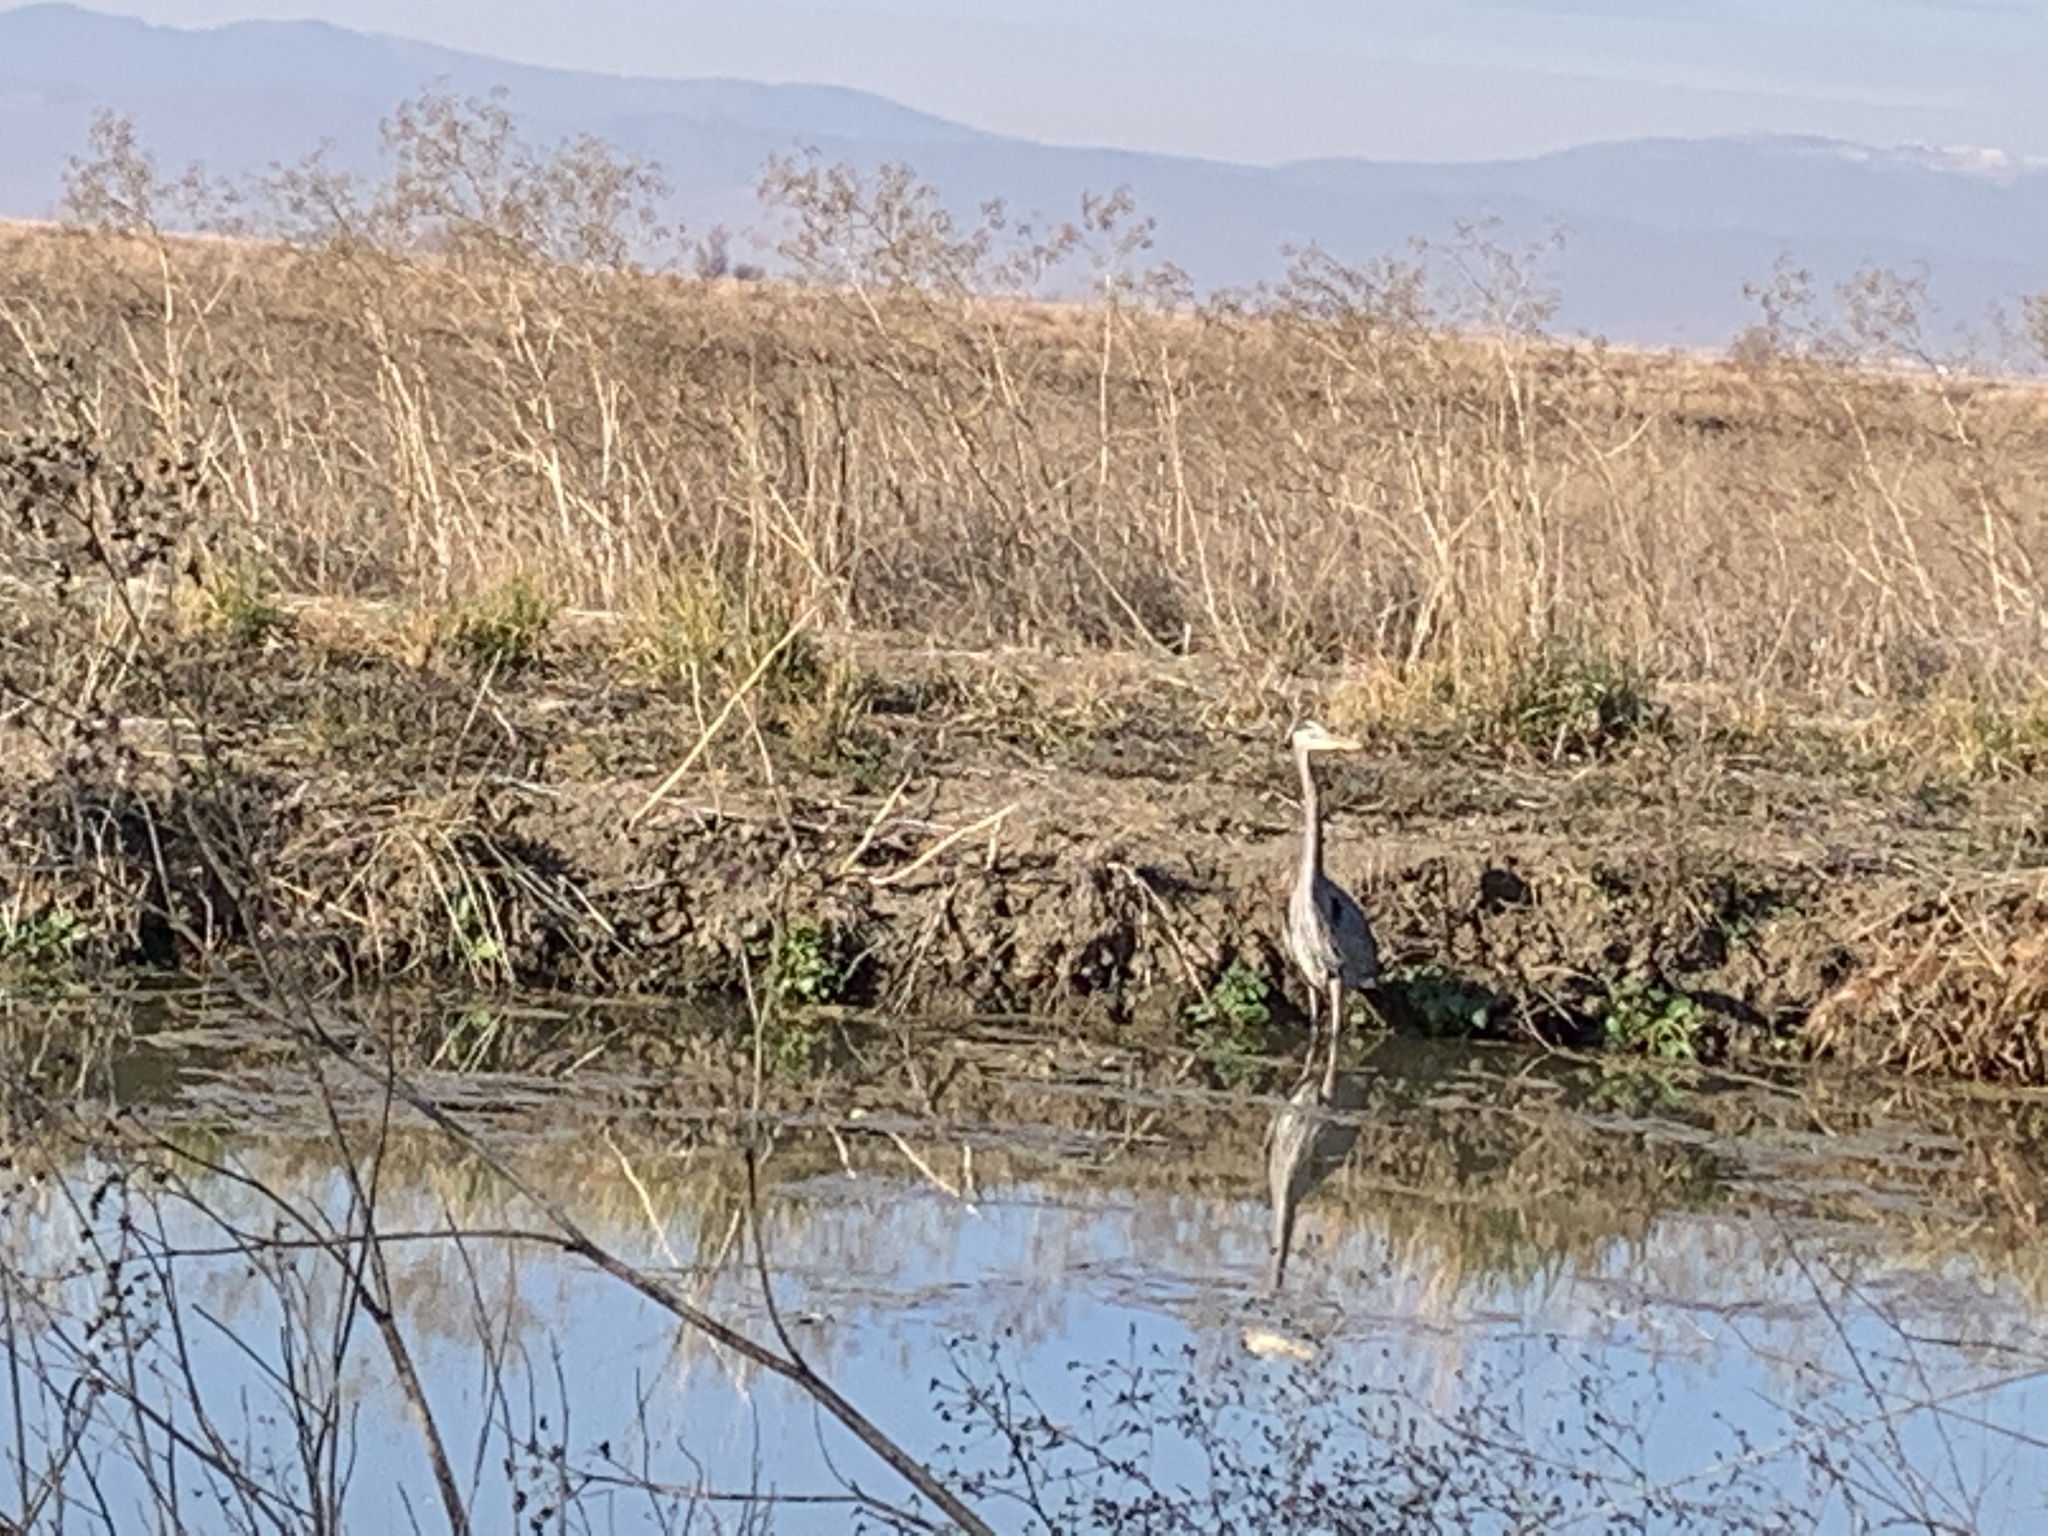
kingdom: Animalia
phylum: Chordata
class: Aves
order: Pelecaniformes
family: Ardeidae
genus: Ardea
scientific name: Ardea herodias
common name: Great blue heron
